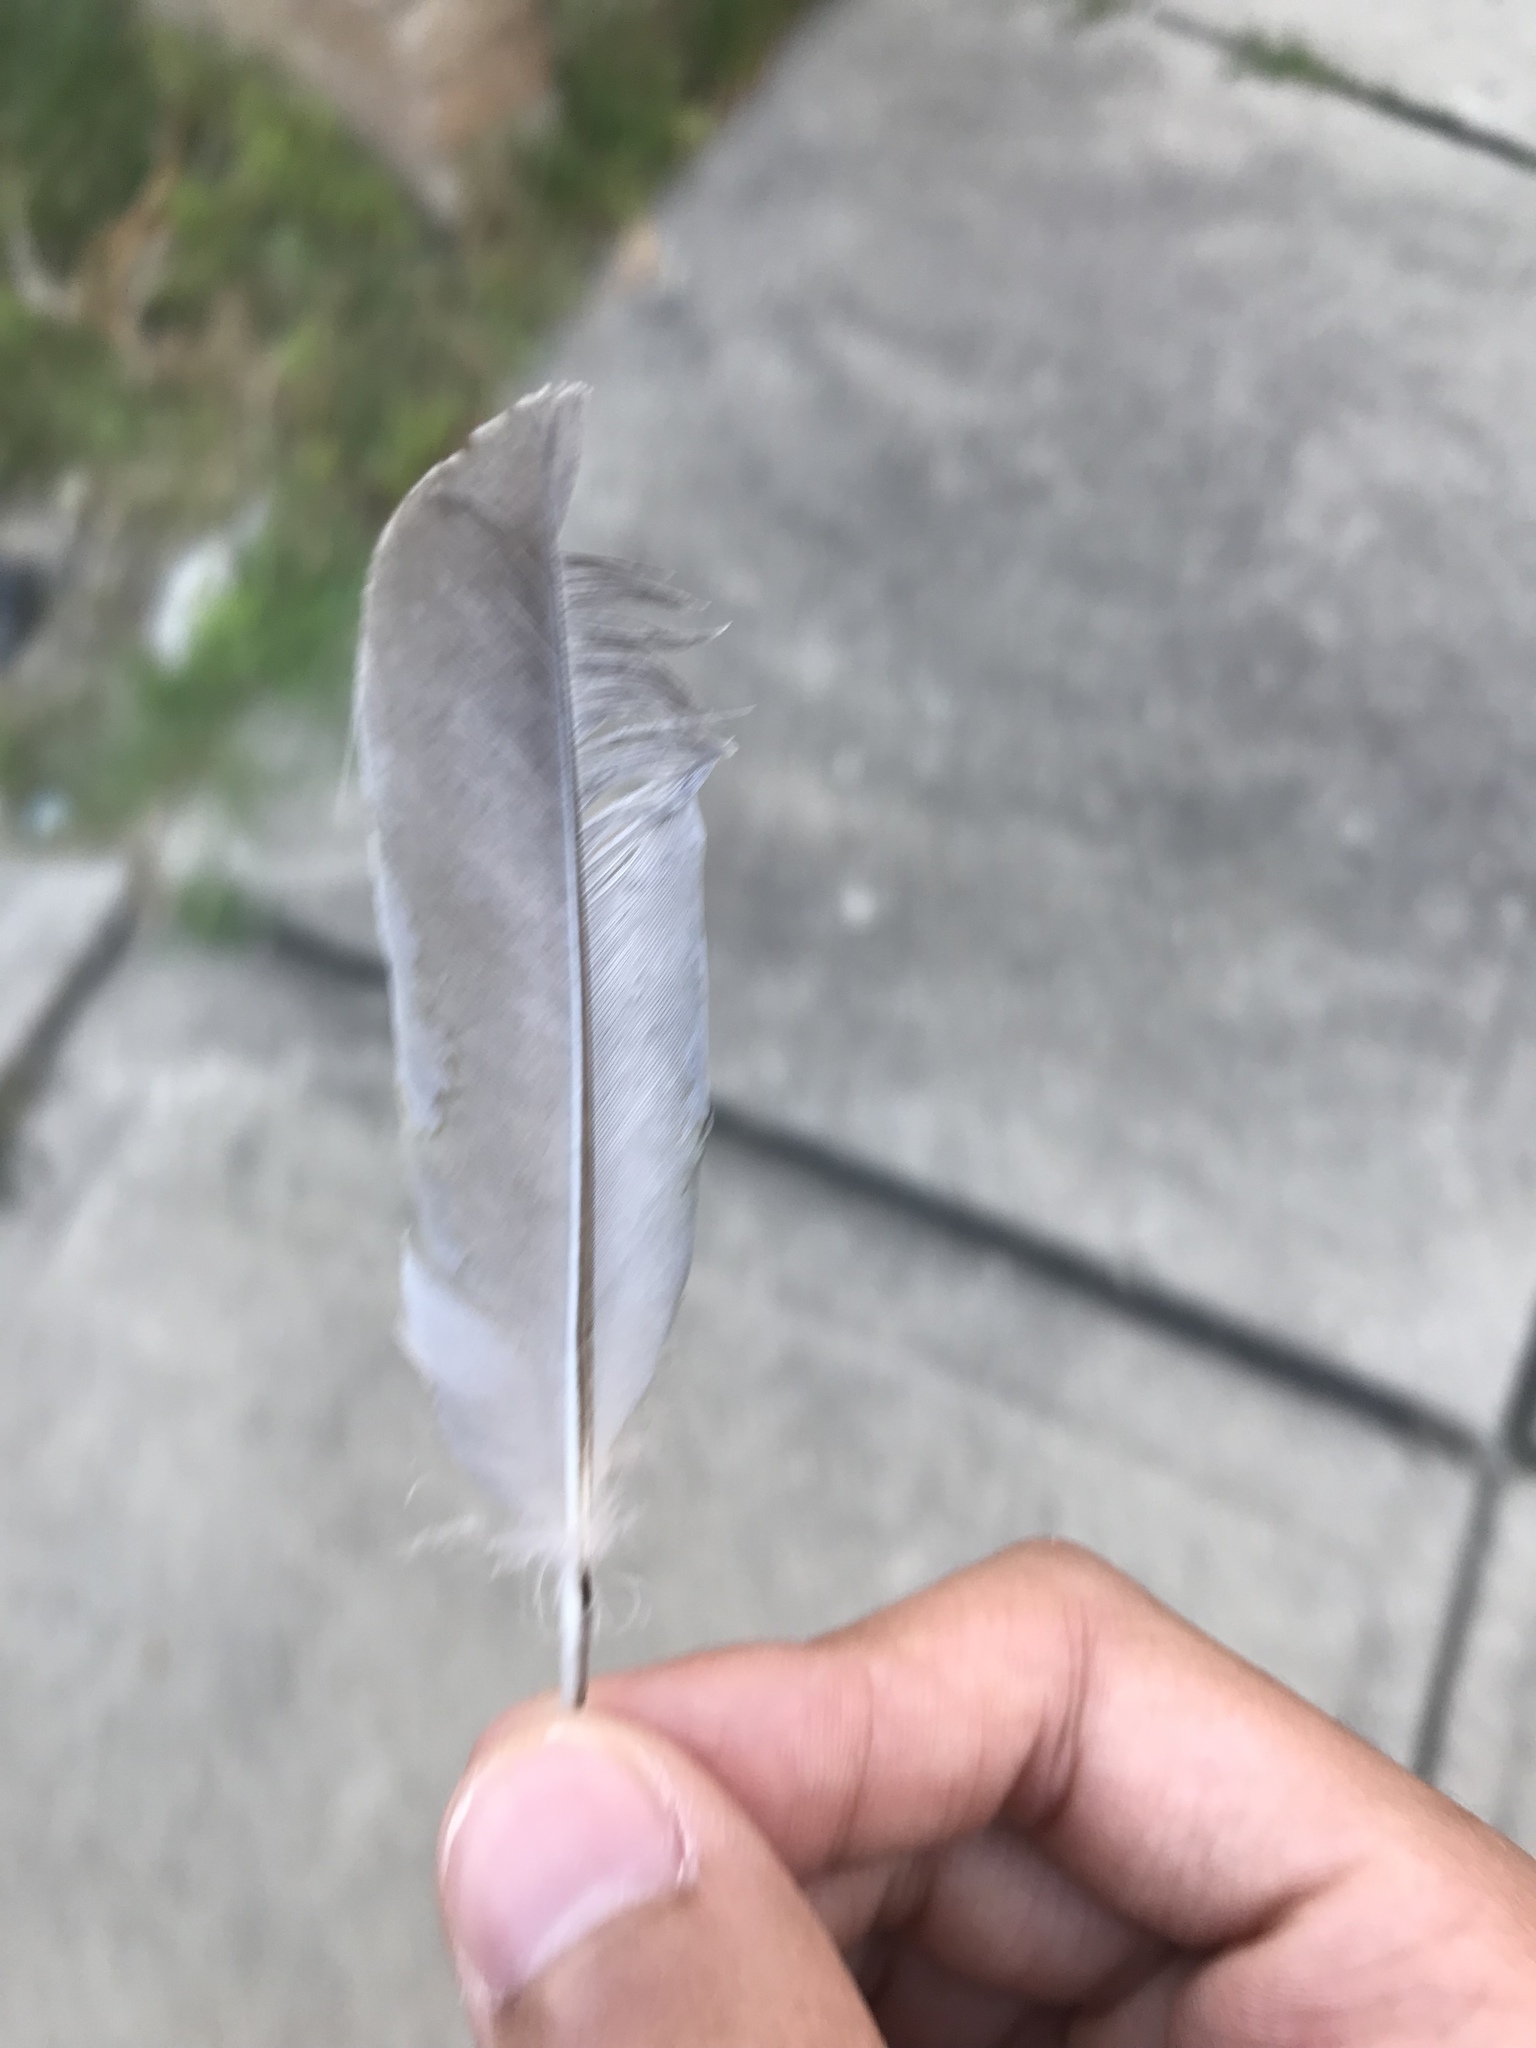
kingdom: Animalia
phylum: Chordata
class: Aves
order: Columbiformes
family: Columbidae
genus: Columba
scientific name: Columba livia
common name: Rock pigeon
